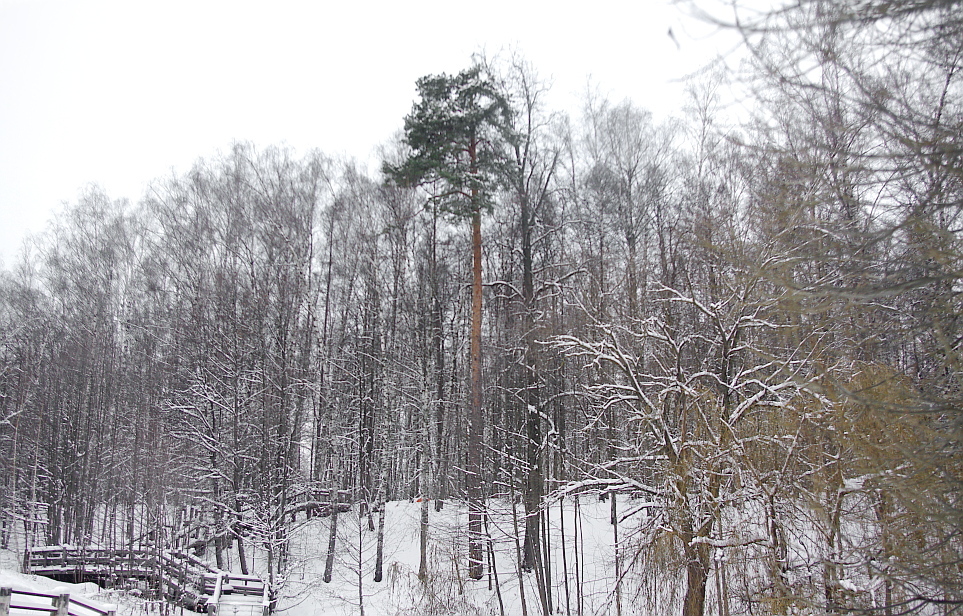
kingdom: Plantae
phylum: Tracheophyta
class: Pinopsida
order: Pinales
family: Pinaceae
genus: Pinus
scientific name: Pinus sylvestris
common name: Scots pine
